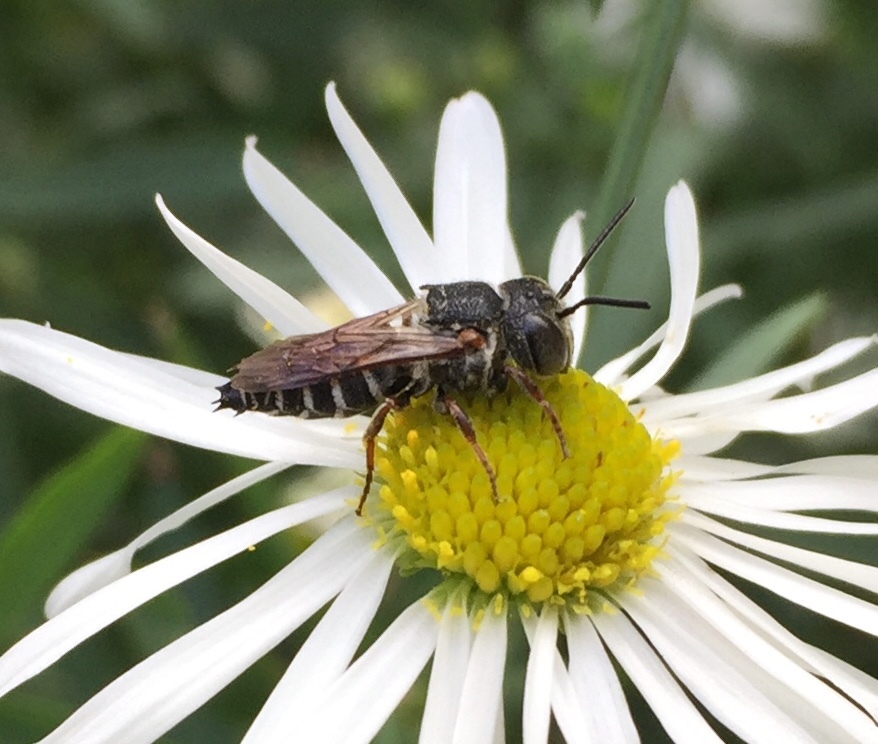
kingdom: Animalia
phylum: Arthropoda
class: Insecta
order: Hymenoptera
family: Megachilidae
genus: Coelioxys
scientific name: Coelioxys octodentatus
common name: Eight-toothed cuckoo leaf-cutter bee
